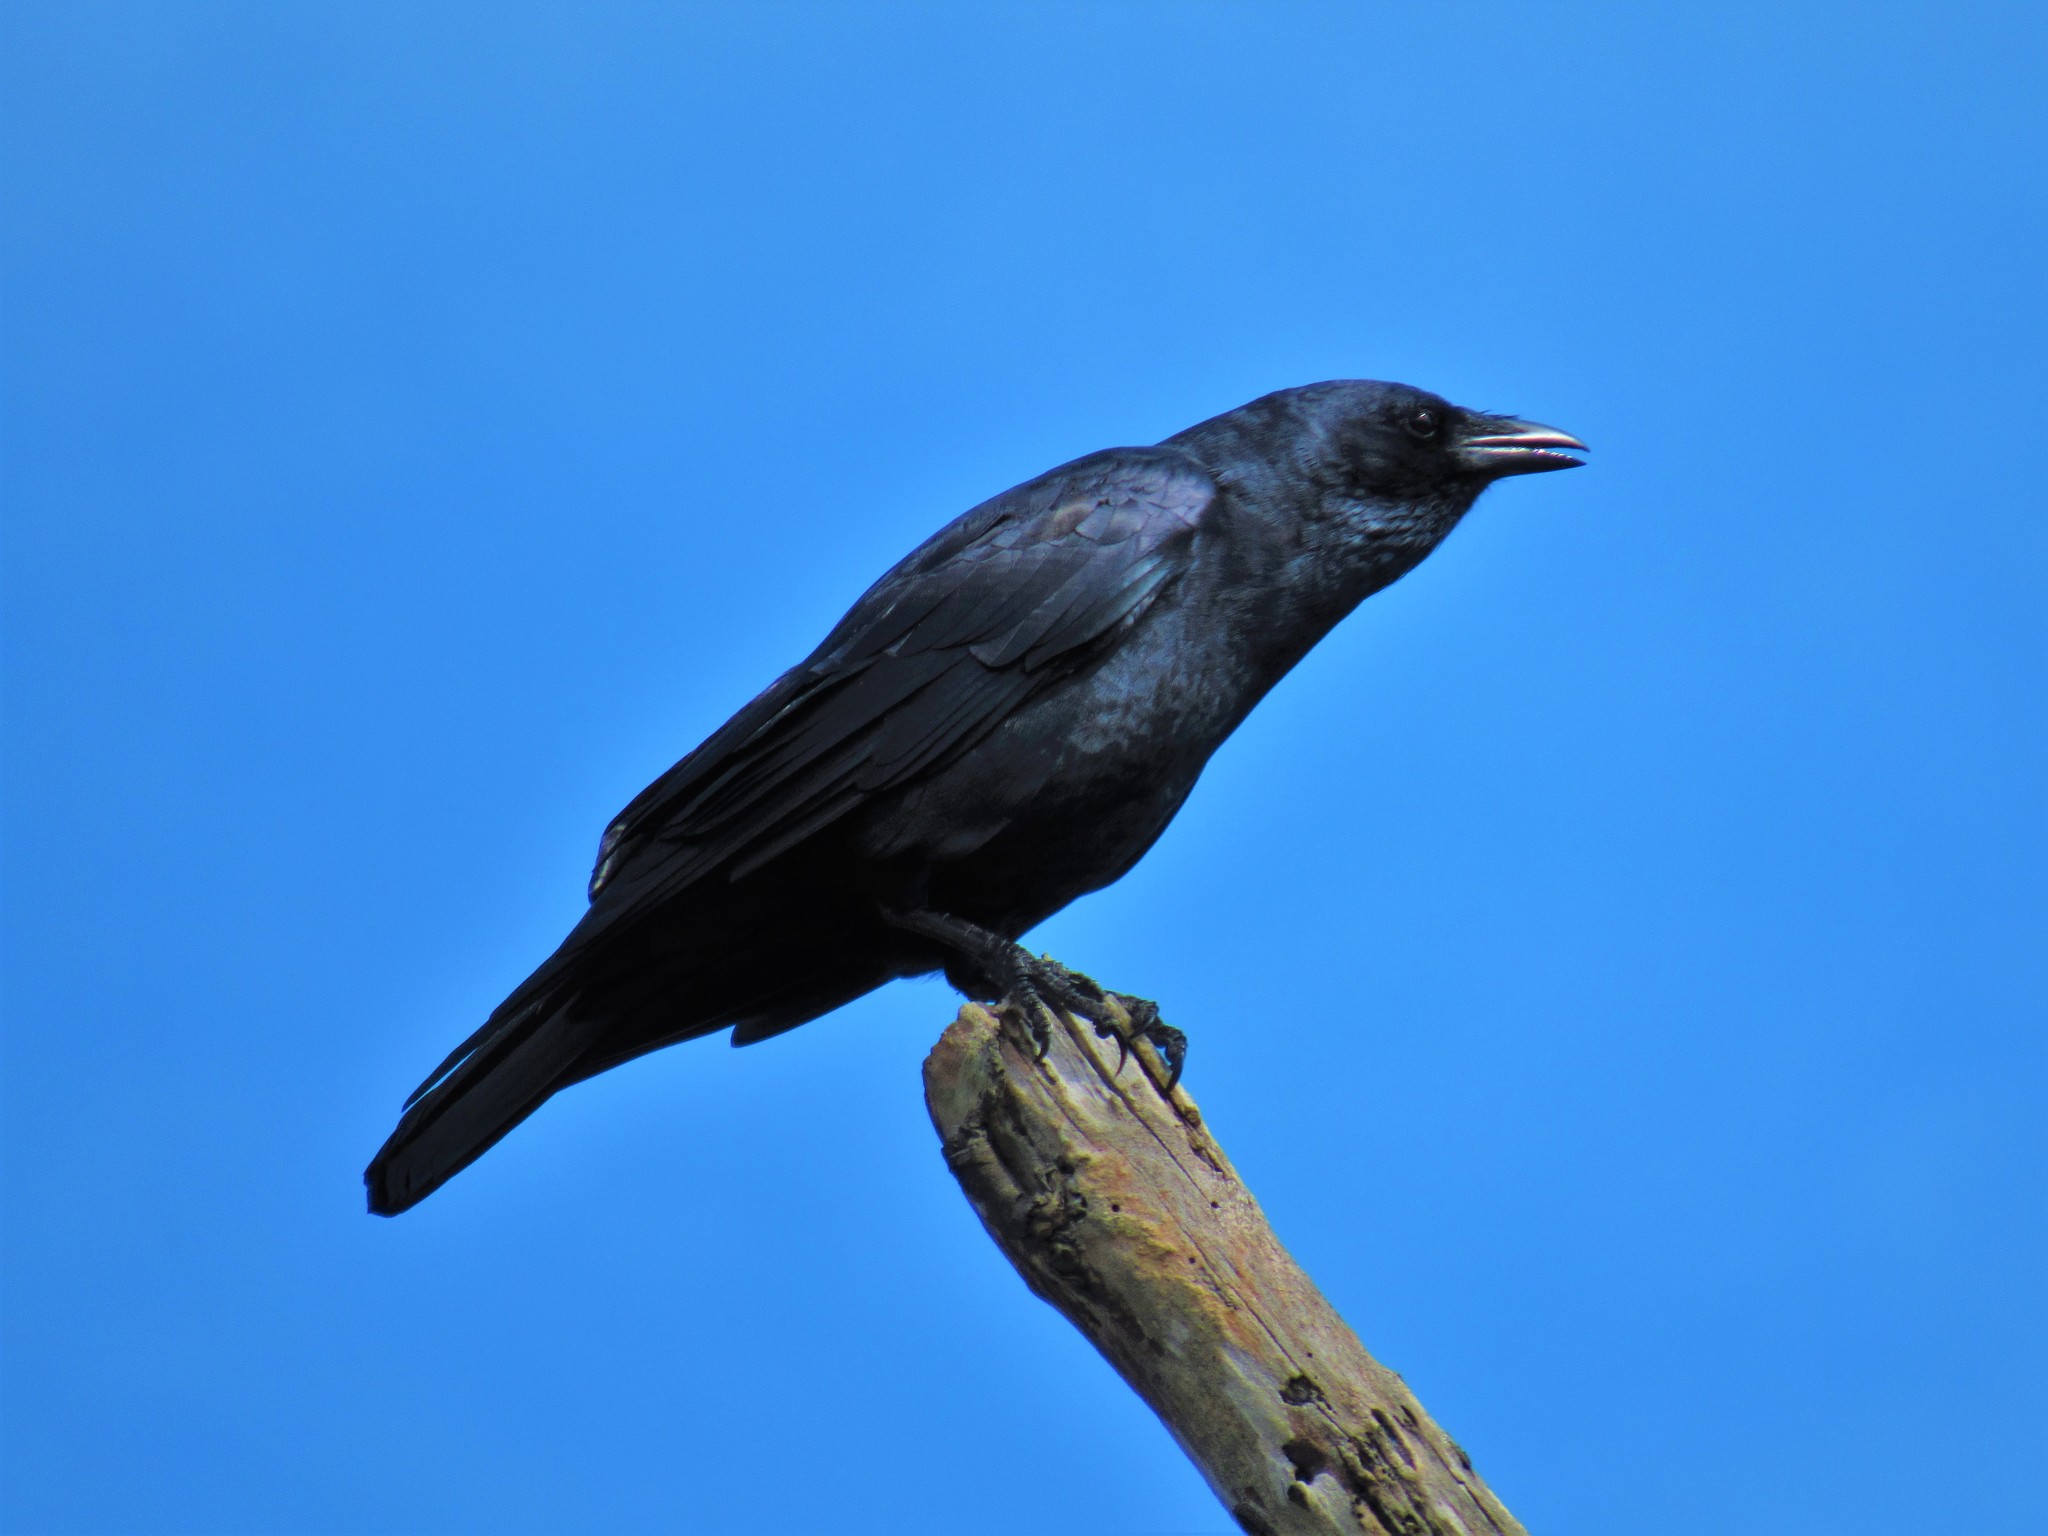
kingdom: Animalia
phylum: Chordata
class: Aves
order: Passeriformes
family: Corvidae
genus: Corvus
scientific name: Corvus
